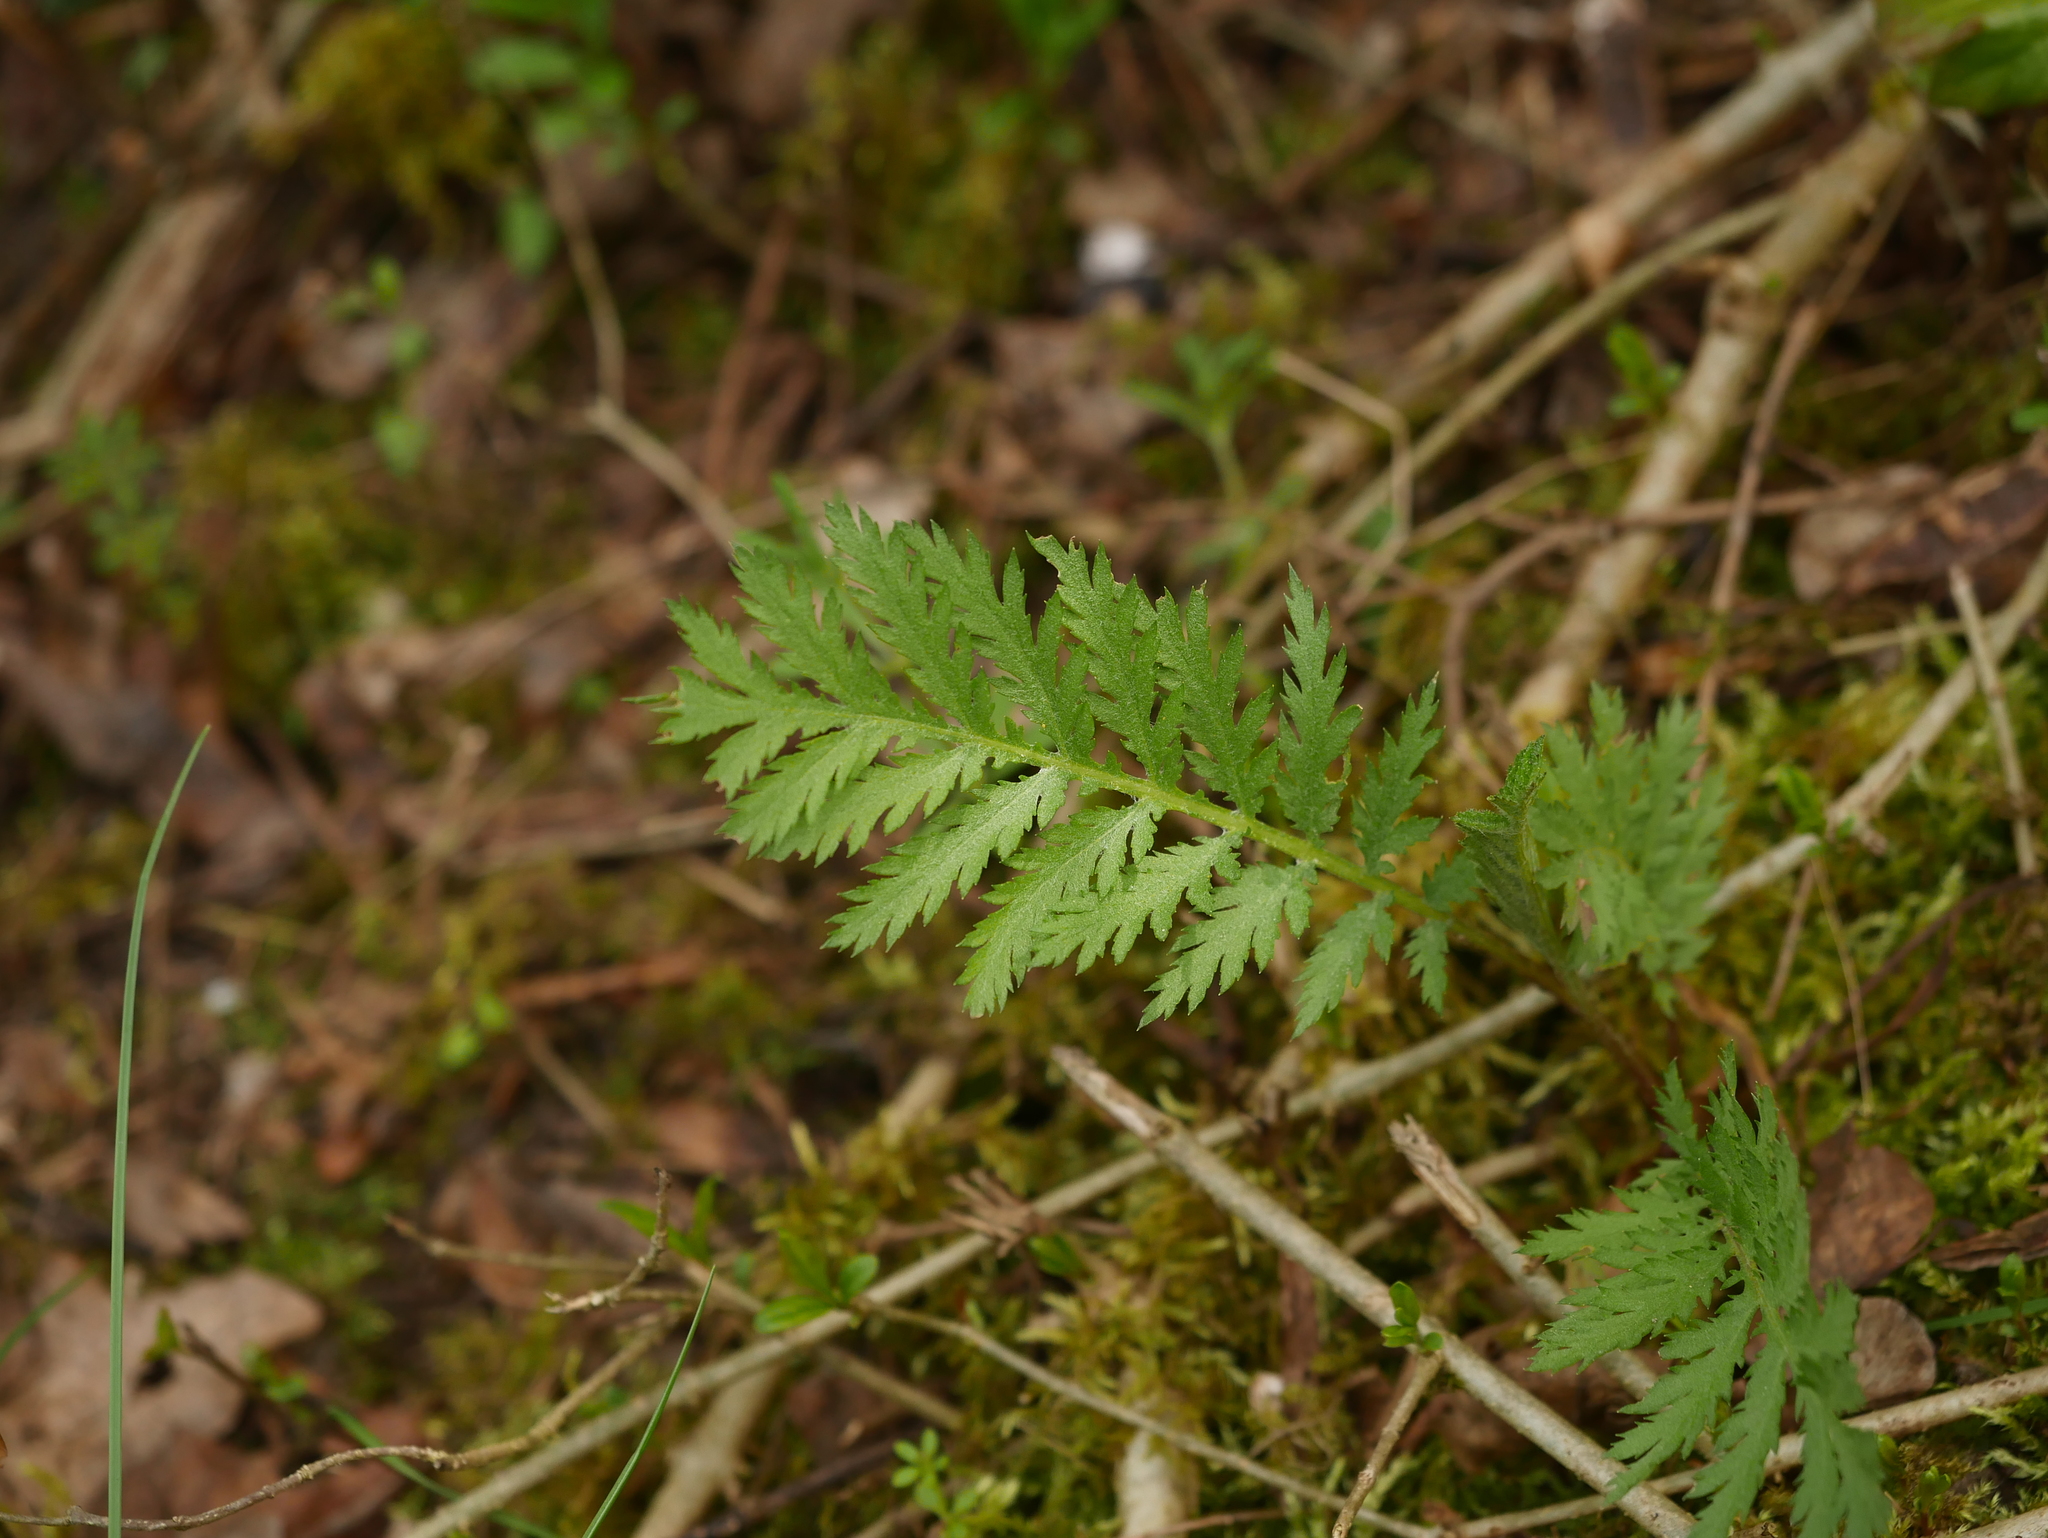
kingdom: Plantae
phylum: Tracheophyta
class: Magnoliopsida
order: Asterales
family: Asteraceae
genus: Tanacetum
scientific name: Tanacetum vulgare
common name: Common tansy
